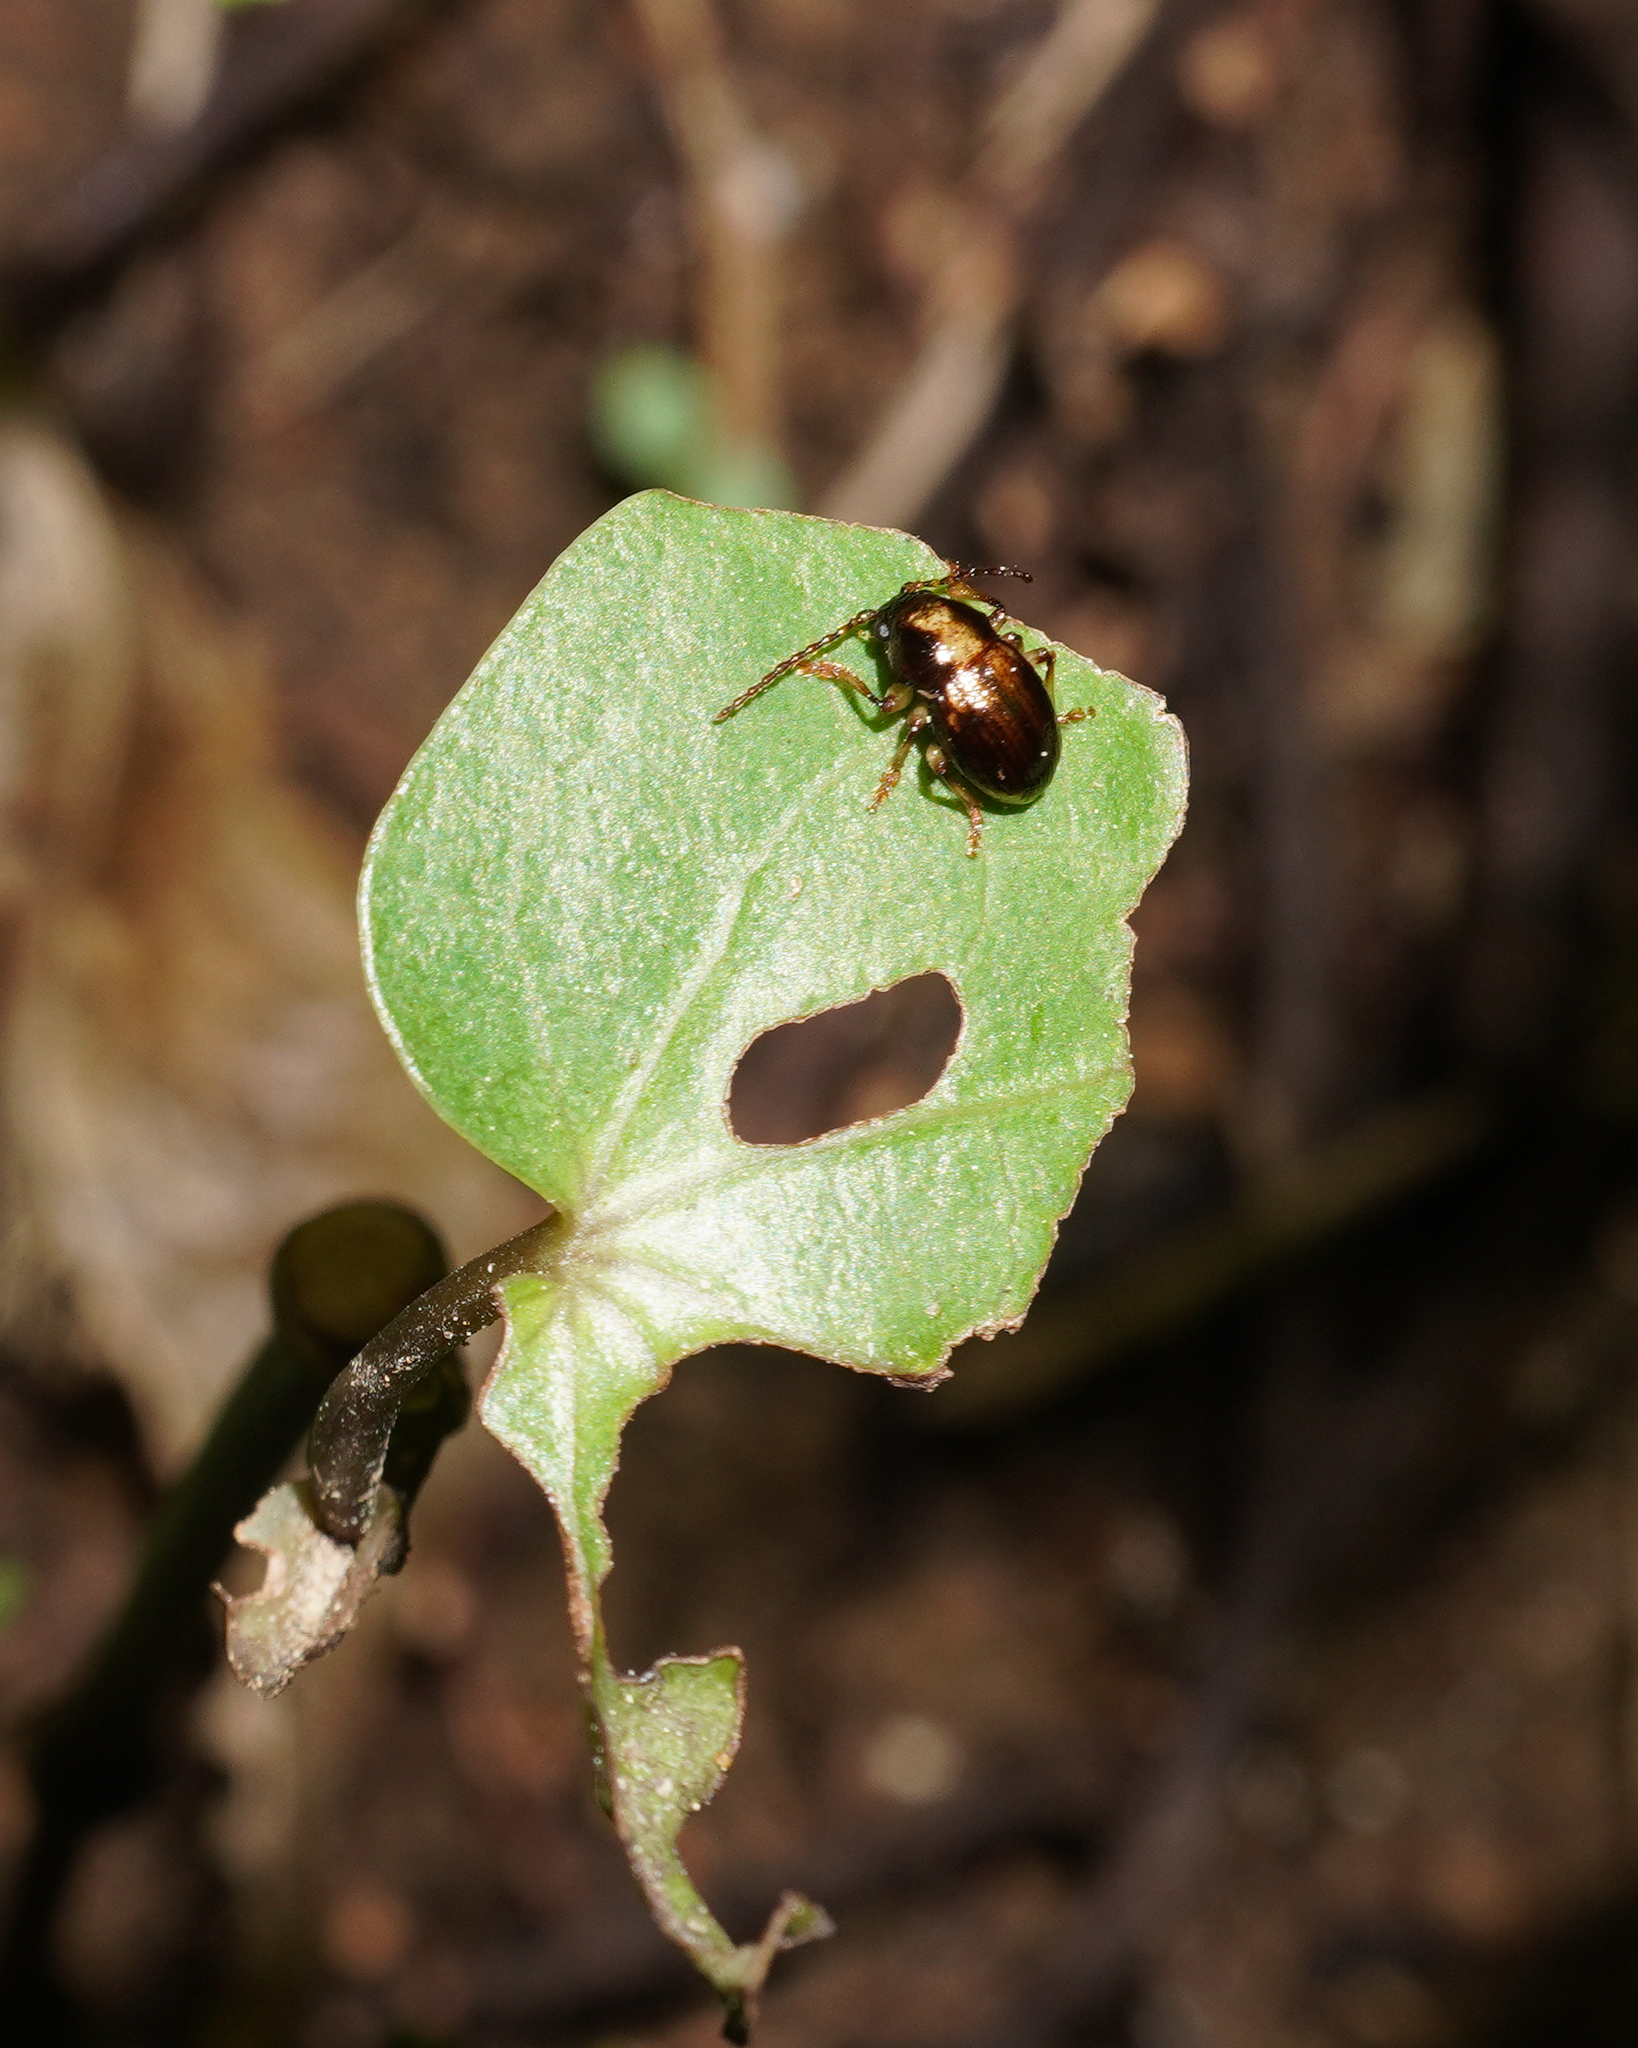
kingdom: Animalia
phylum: Arthropoda
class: Insecta
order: Coleoptera
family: Chrysomelidae
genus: Peniticus
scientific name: Peniticus
